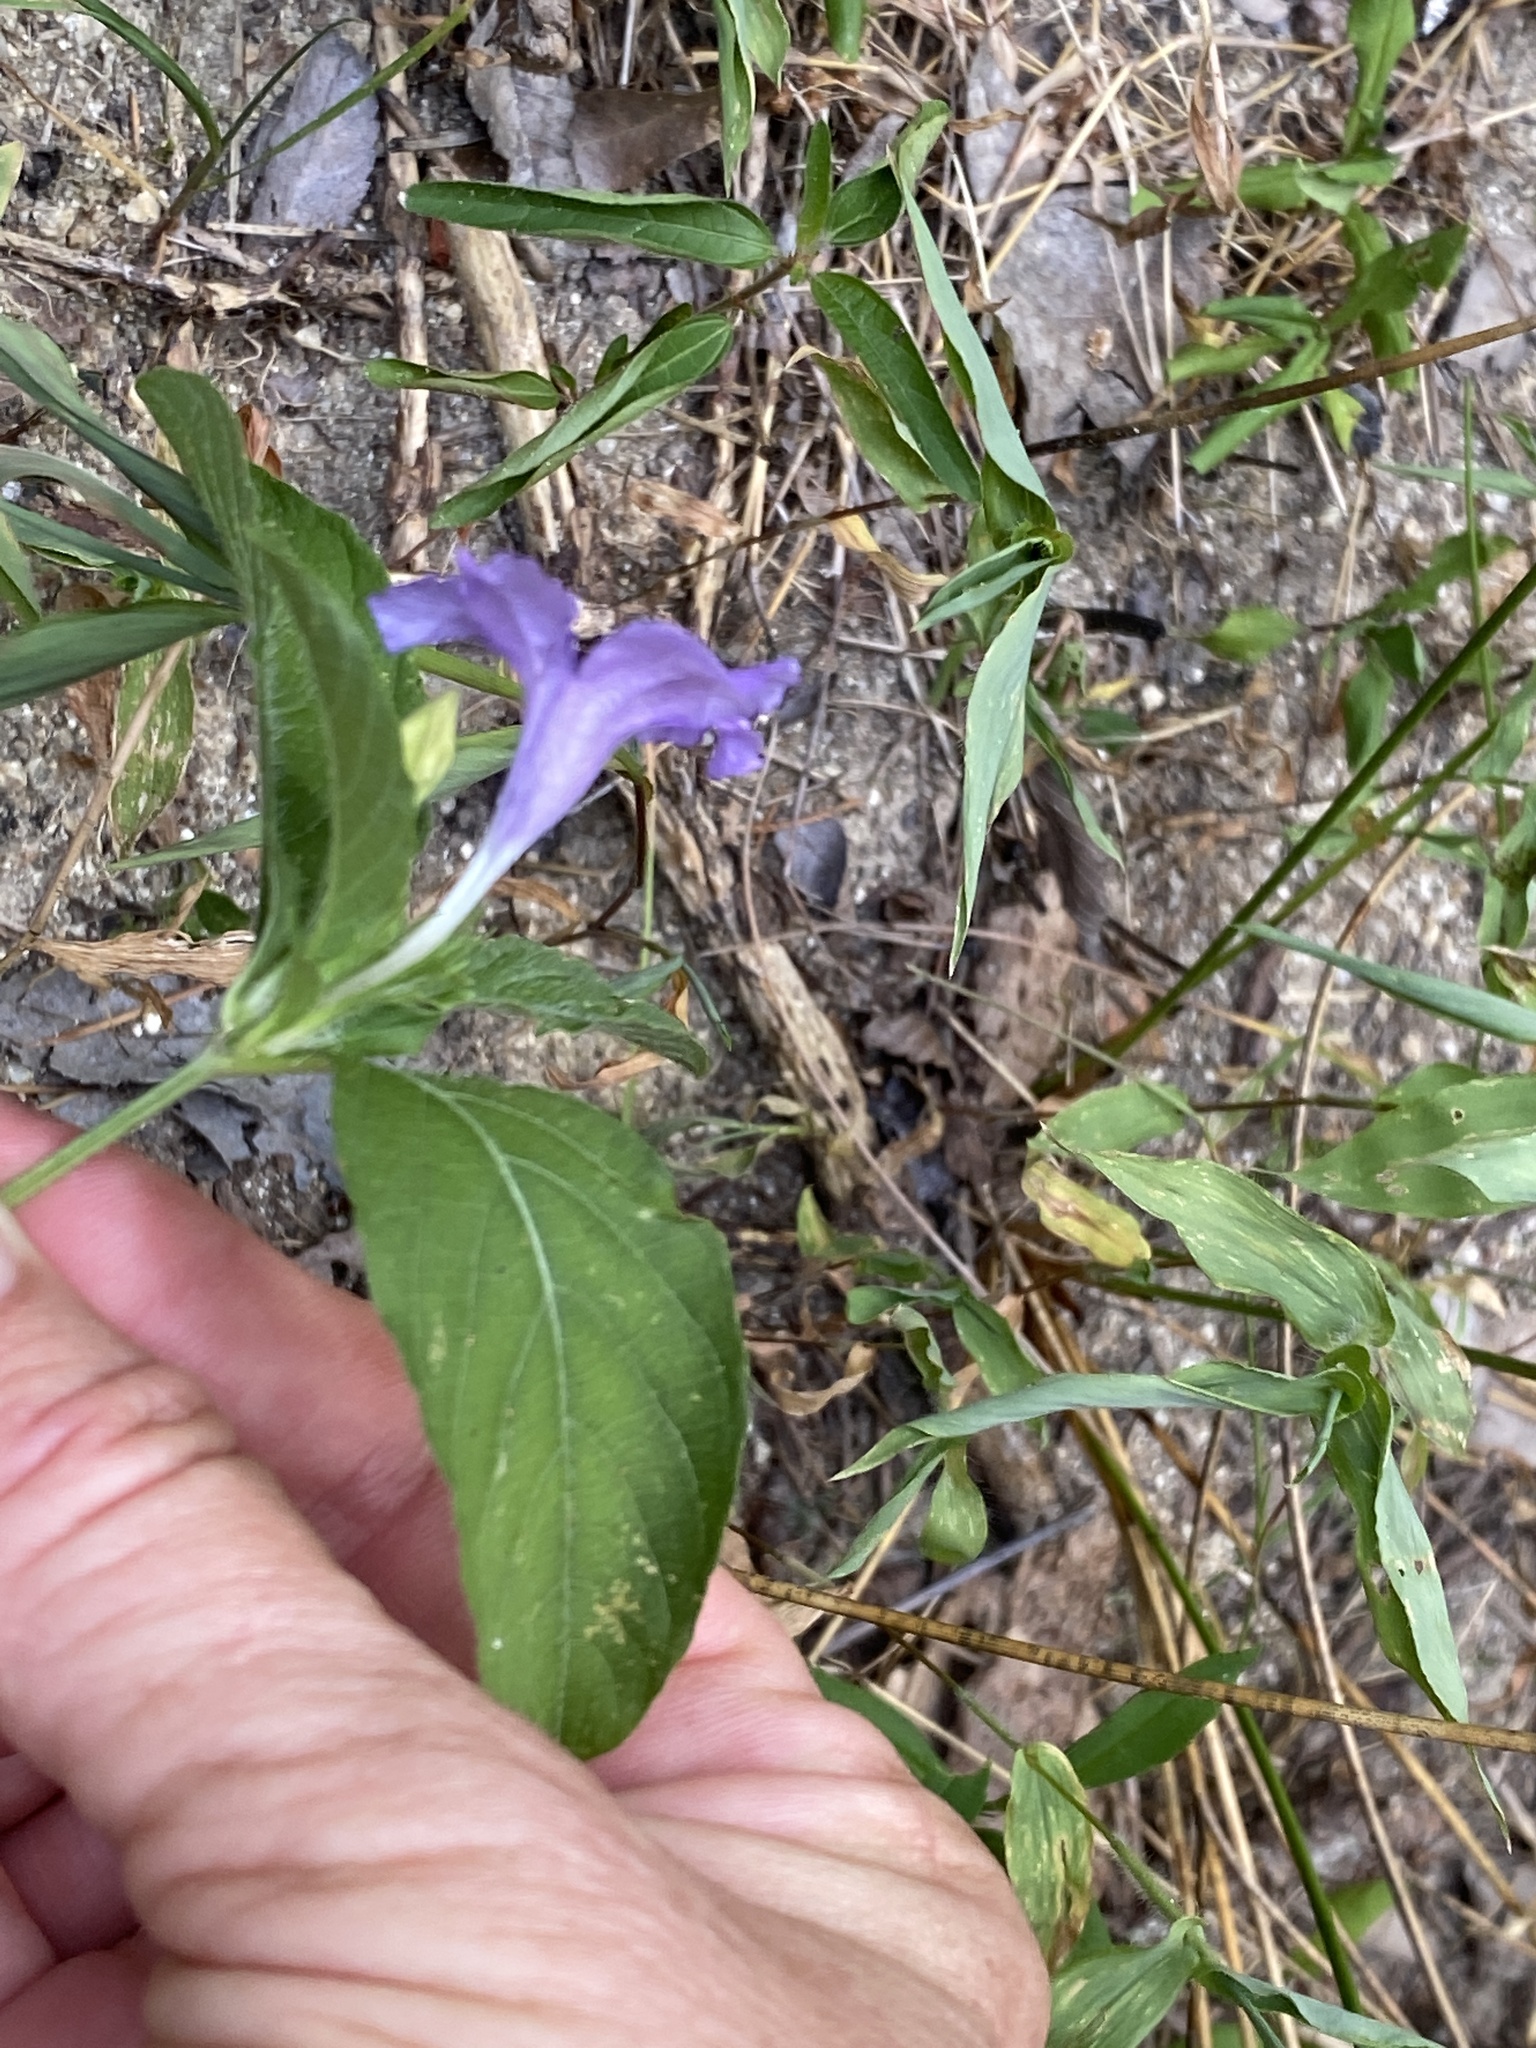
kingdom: Plantae
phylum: Tracheophyta
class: Magnoliopsida
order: Lamiales
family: Acanthaceae
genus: Ruellia
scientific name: Ruellia caroliniensis
